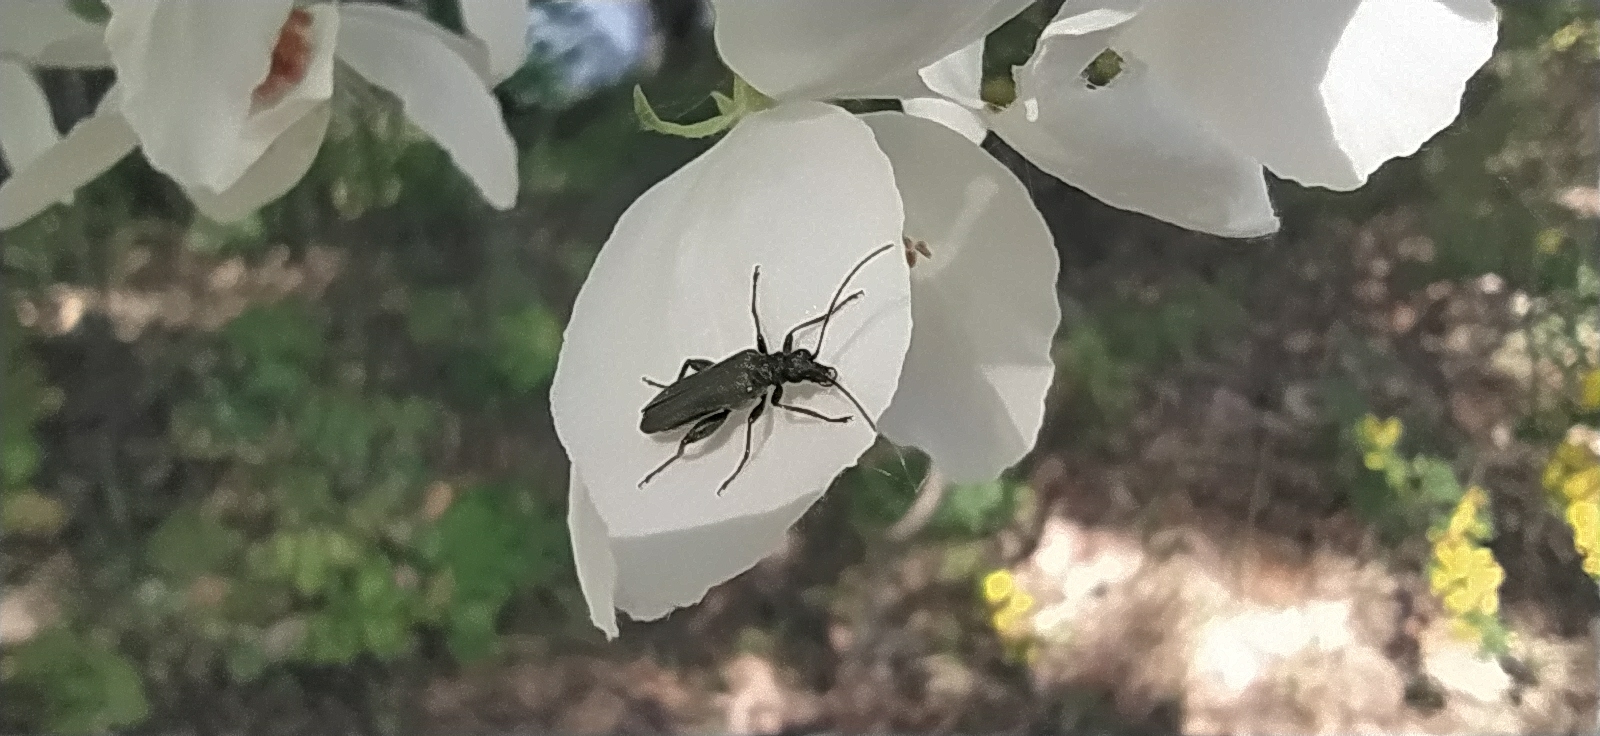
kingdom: Animalia
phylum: Arthropoda
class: Insecta
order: Coleoptera
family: Oedemeridae
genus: Oedemera
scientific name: Oedemera virescens
